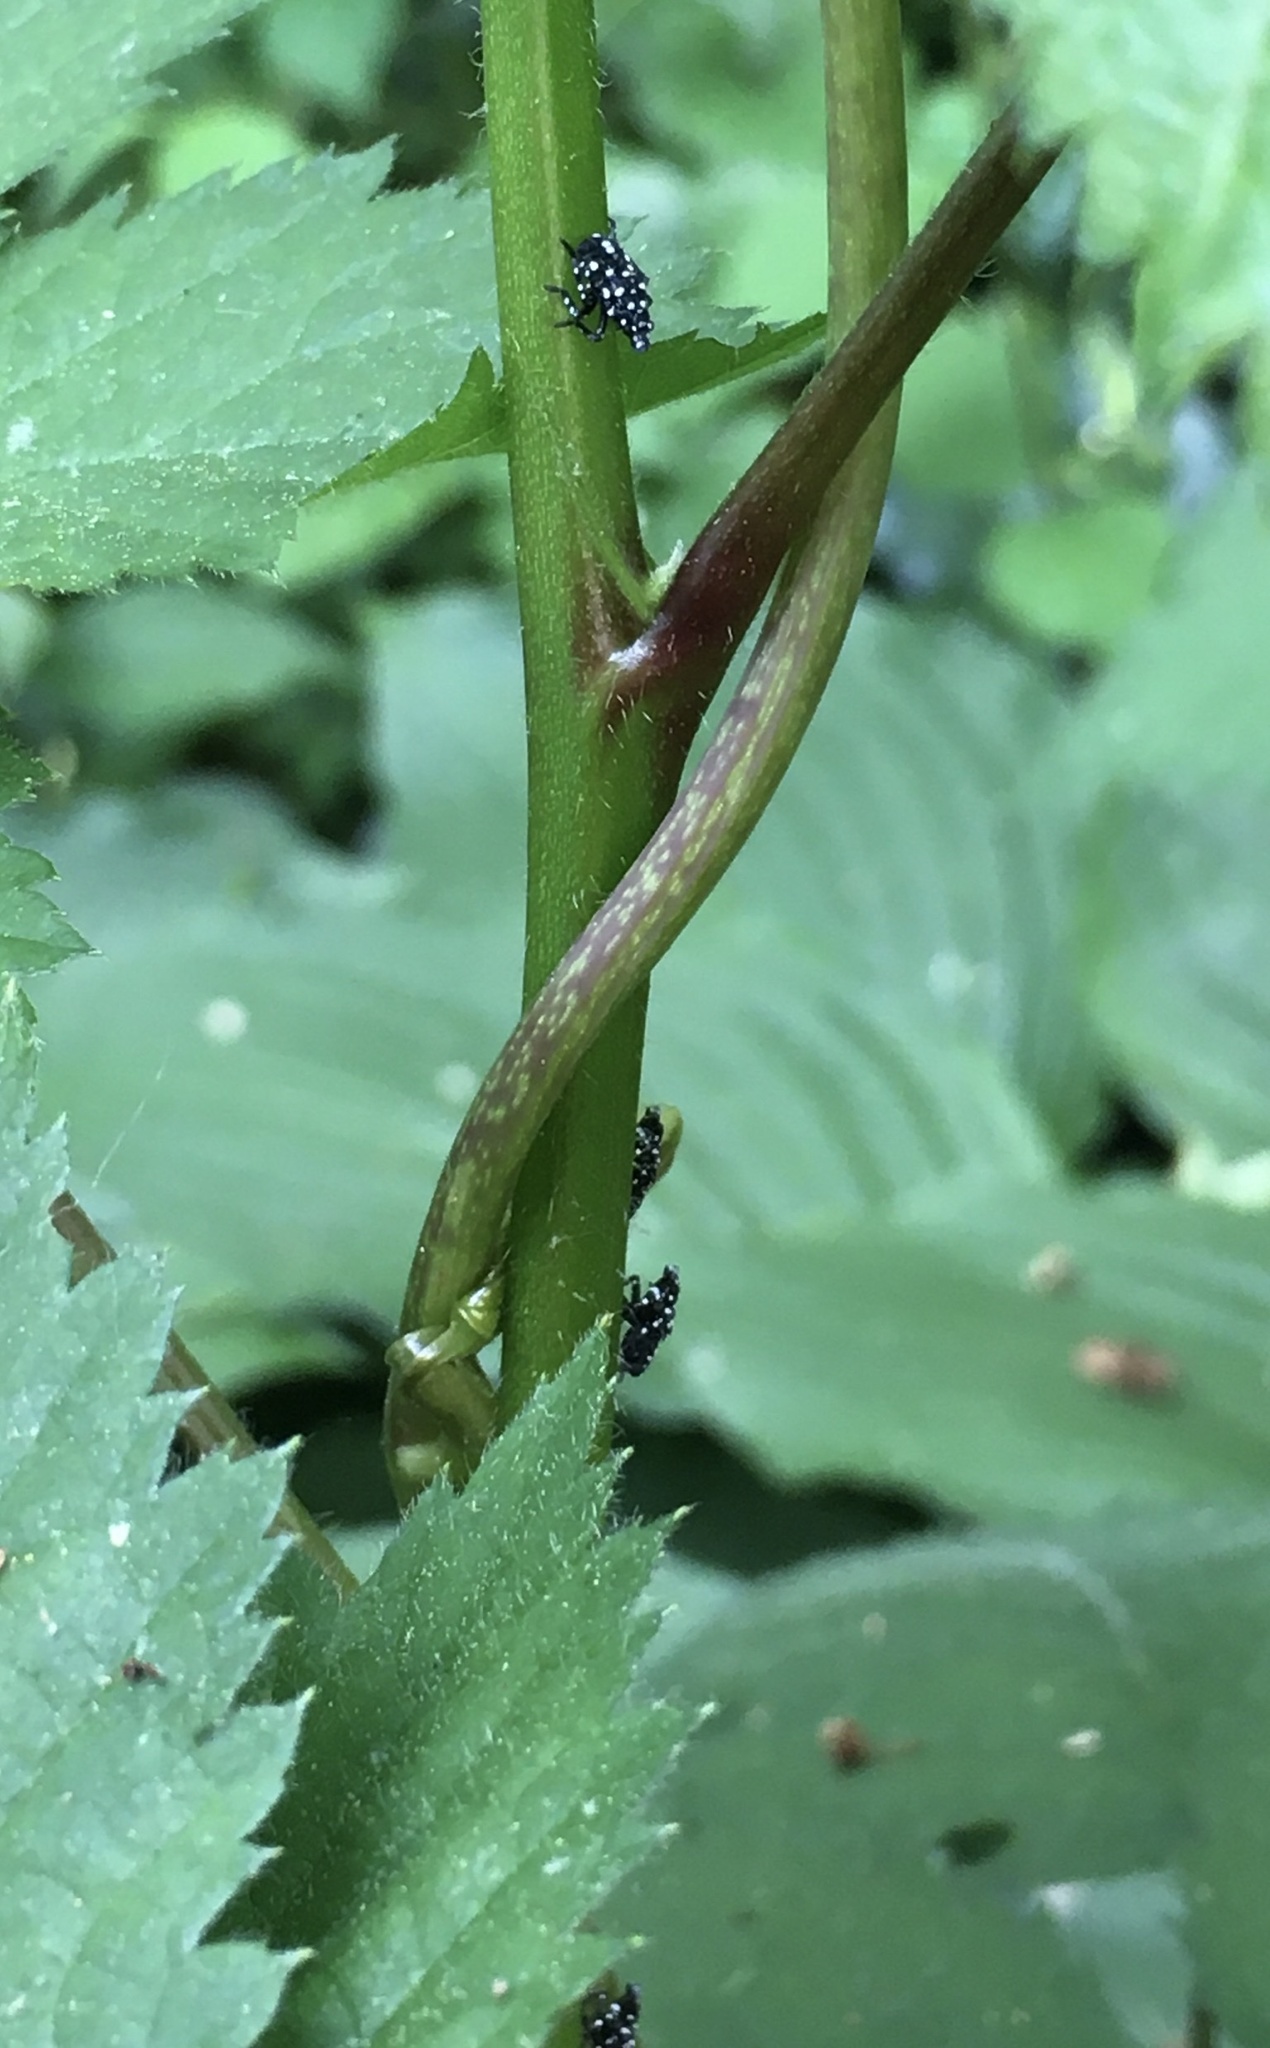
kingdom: Animalia
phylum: Arthropoda
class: Insecta
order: Hemiptera
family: Fulgoridae
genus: Lycorma
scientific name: Lycorma delicatula
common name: Spotted lanternfly
